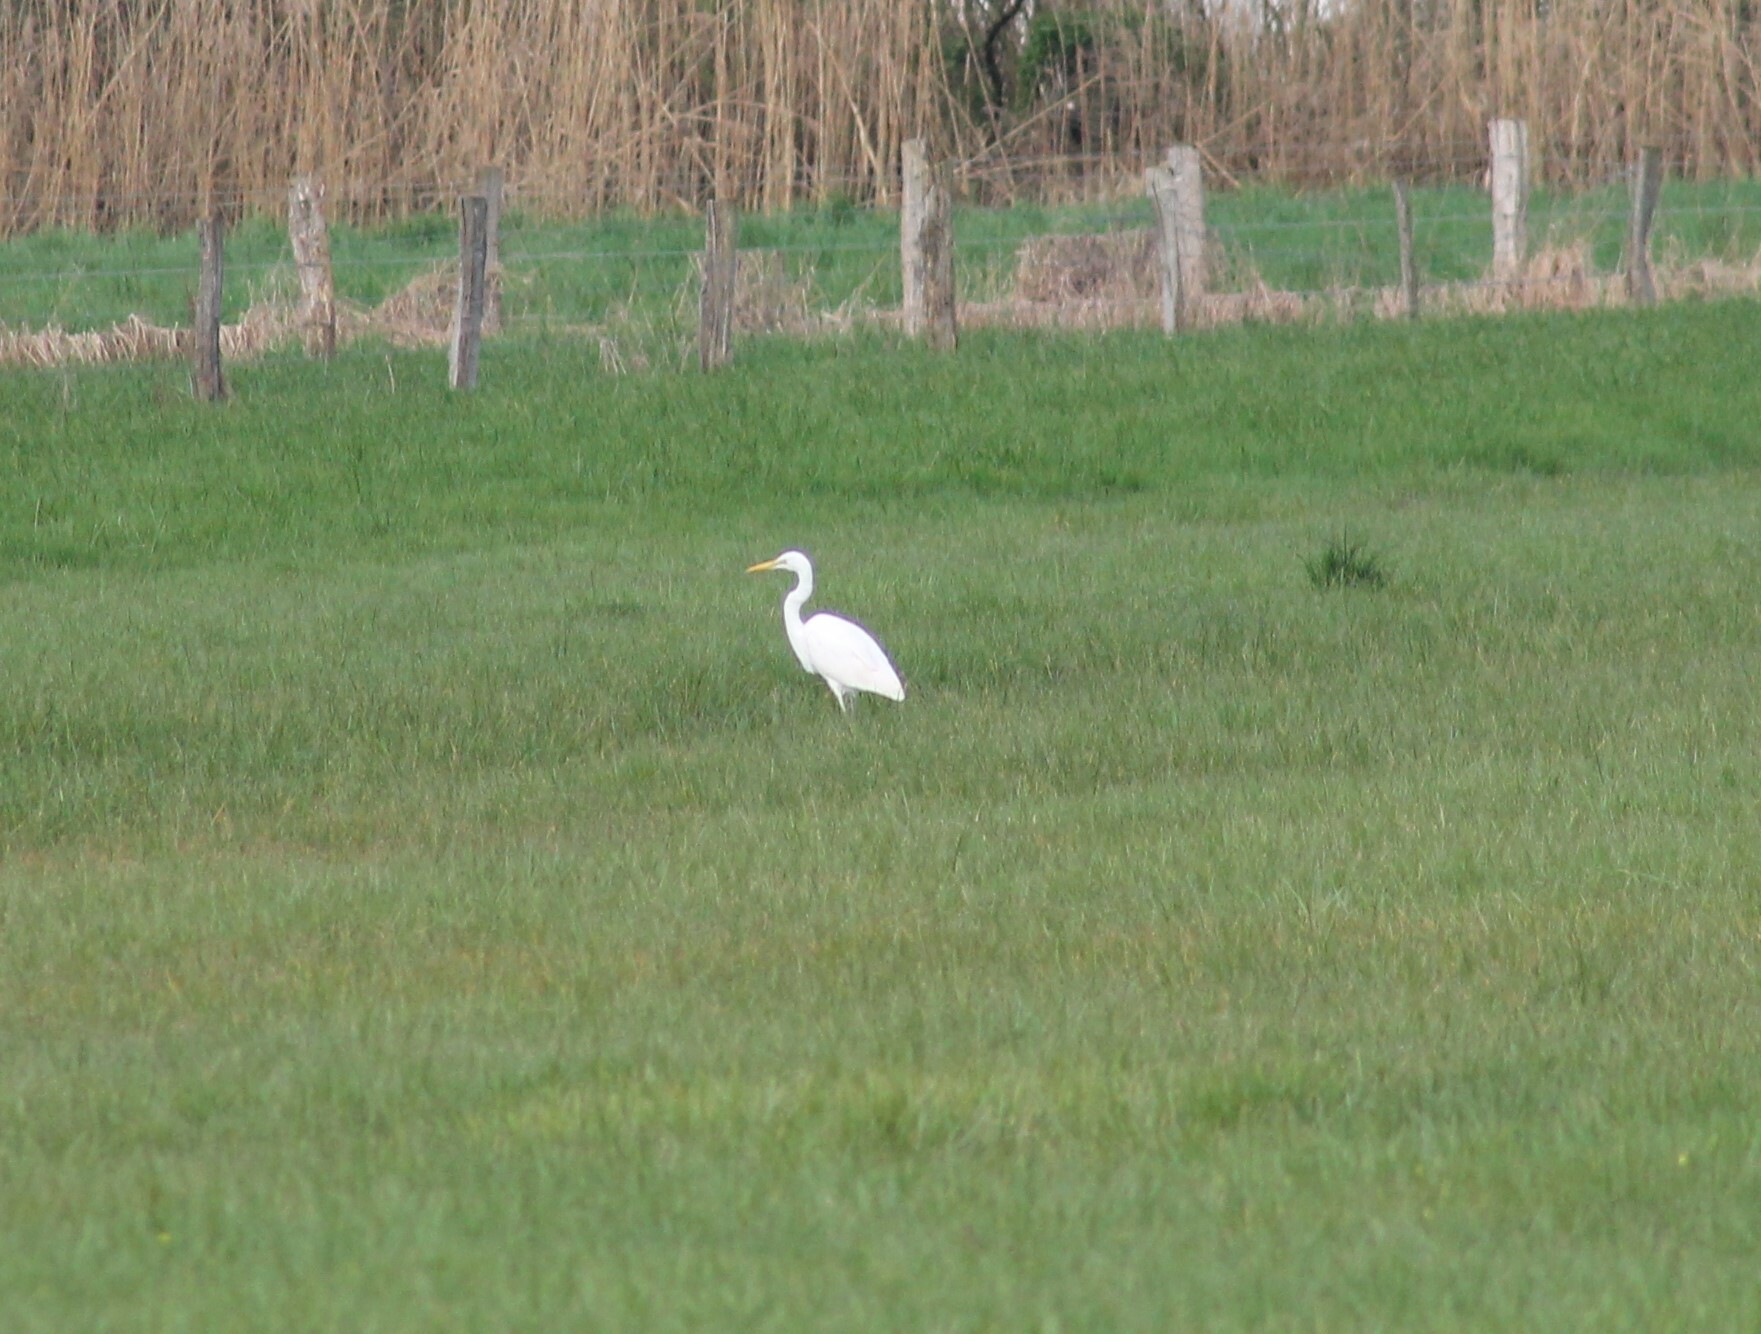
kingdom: Animalia
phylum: Chordata
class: Aves
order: Pelecaniformes
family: Ardeidae
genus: Ardea
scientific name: Ardea alba
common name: Great egret
